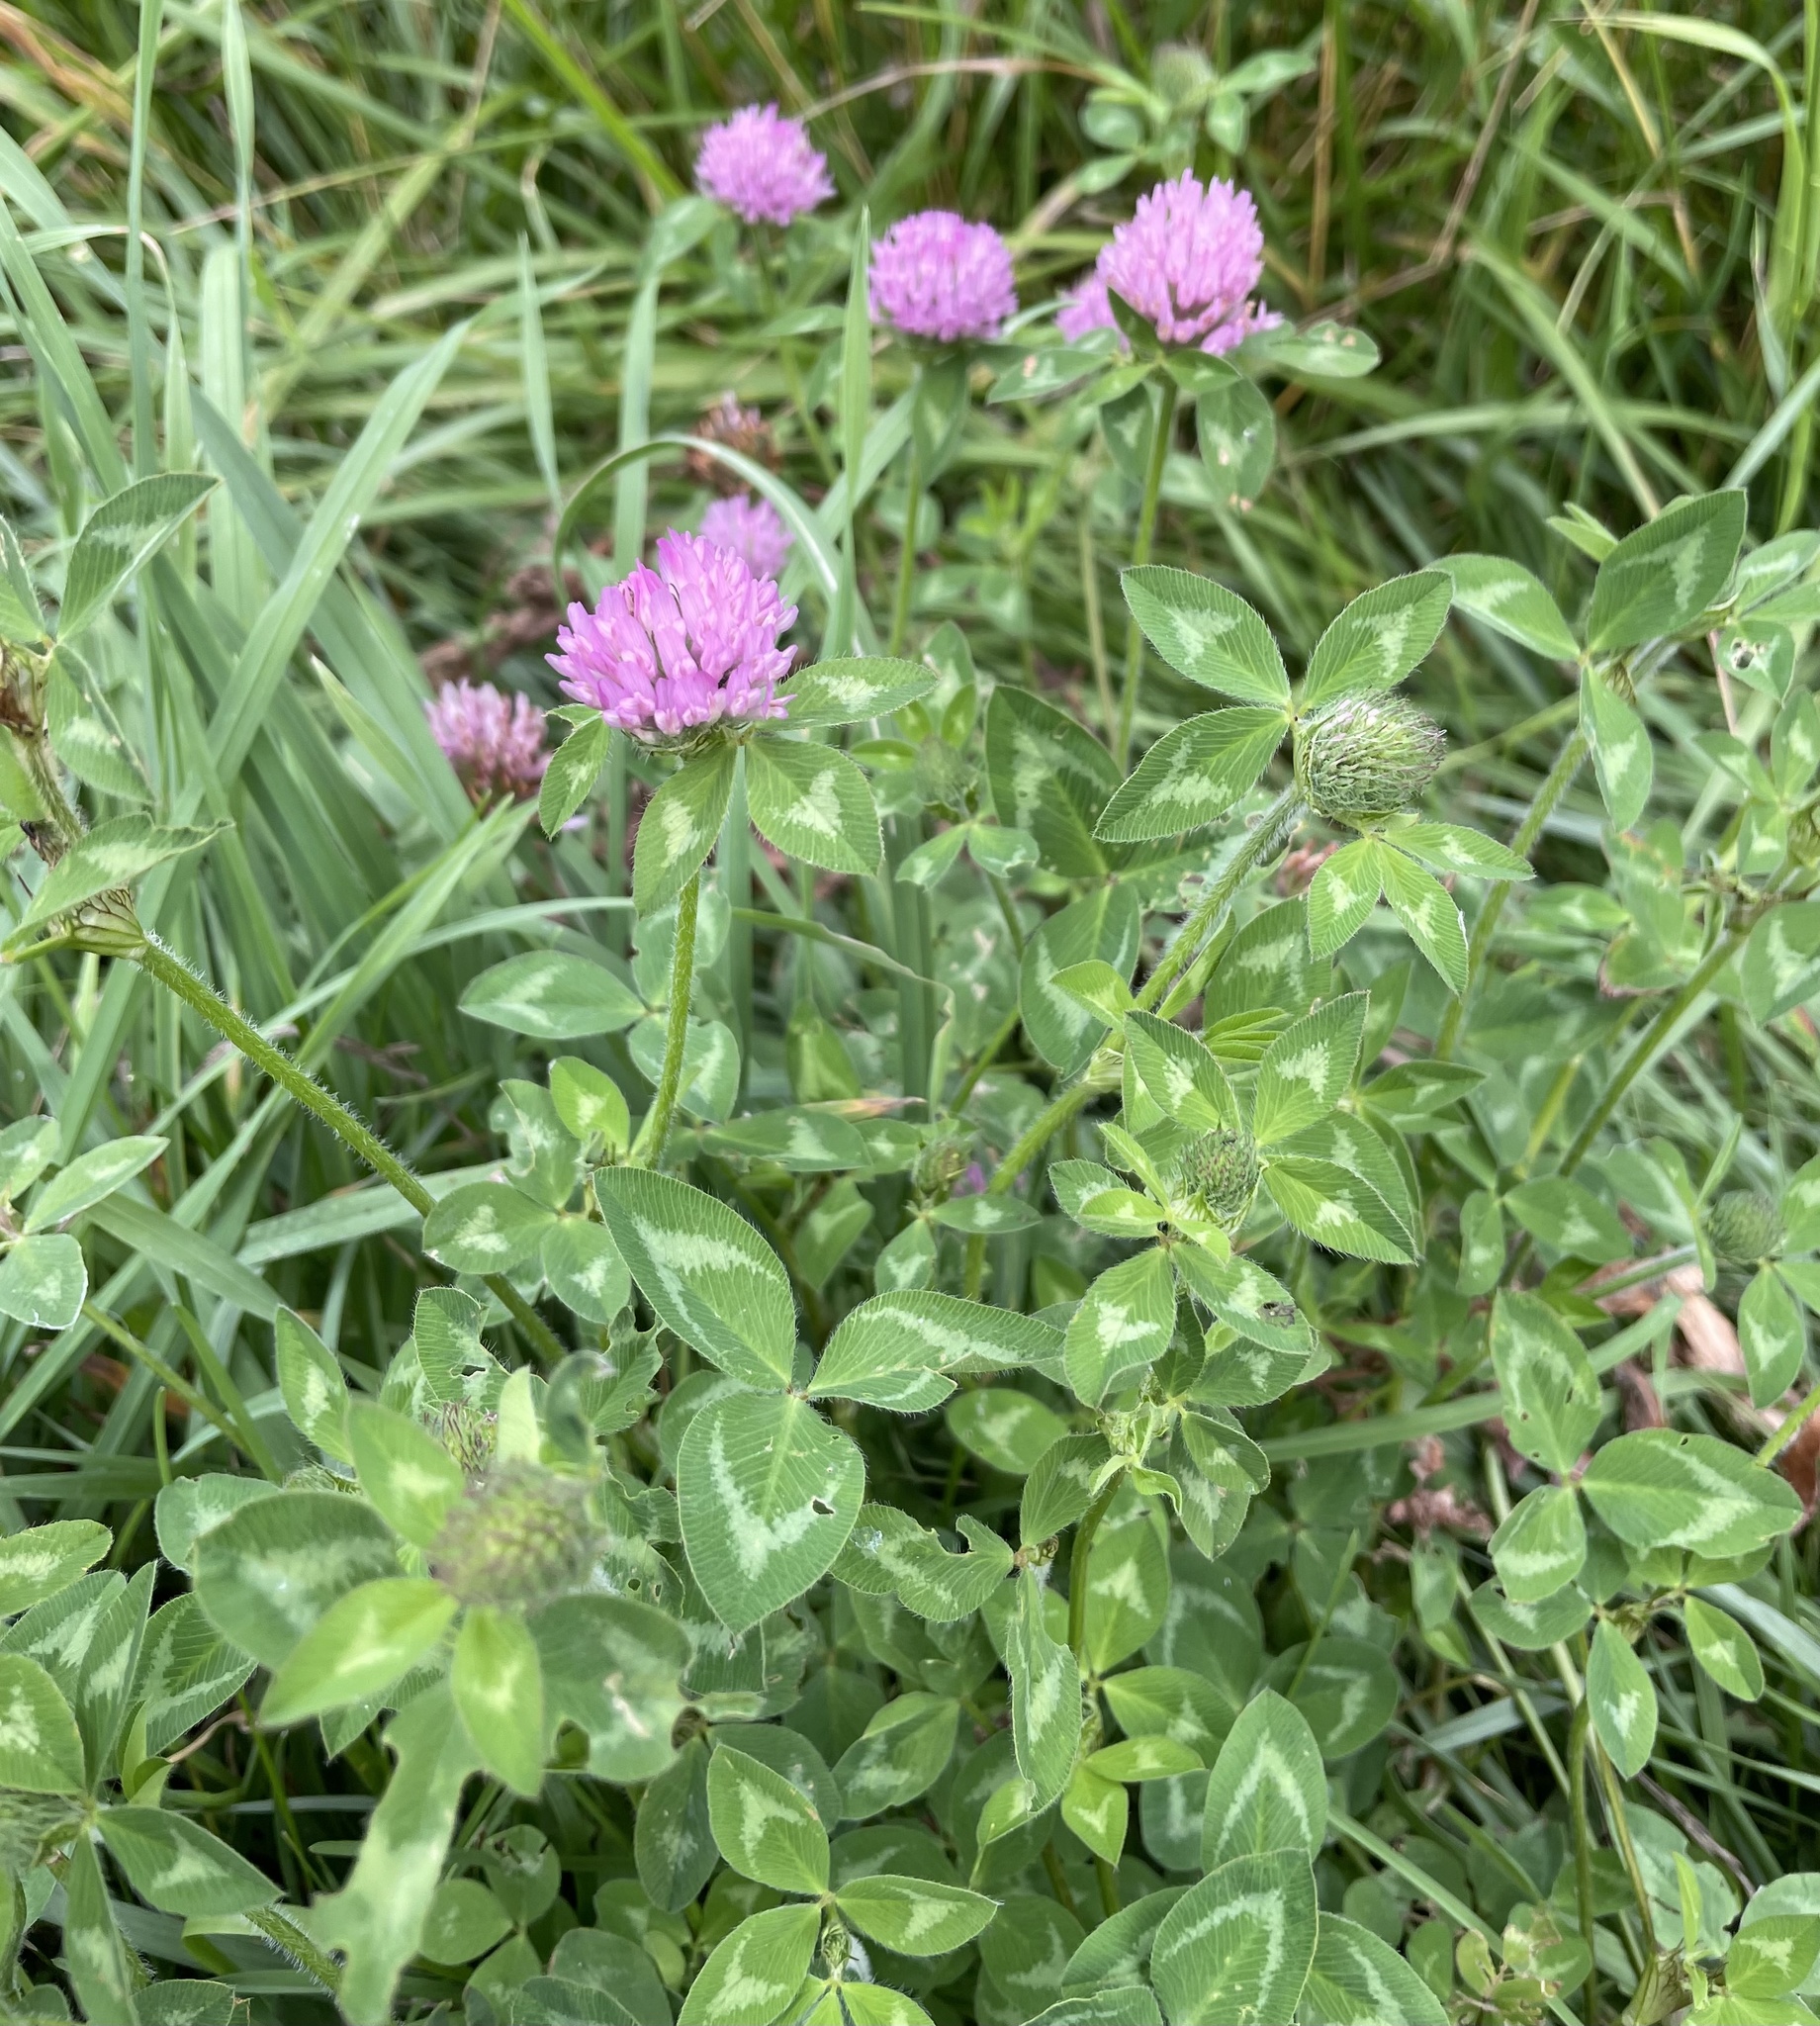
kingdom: Plantae
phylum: Tracheophyta
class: Magnoliopsida
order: Fabales
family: Fabaceae
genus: Trifolium
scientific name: Trifolium pratense
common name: Red clover
